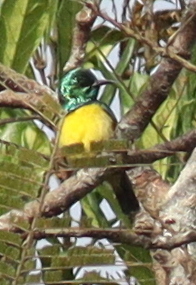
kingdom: Animalia
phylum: Chordata
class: Aves
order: Passeriformes
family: Nectariniidae
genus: Hedydipna
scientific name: Hedydipna collaris
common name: Collared sunbird
